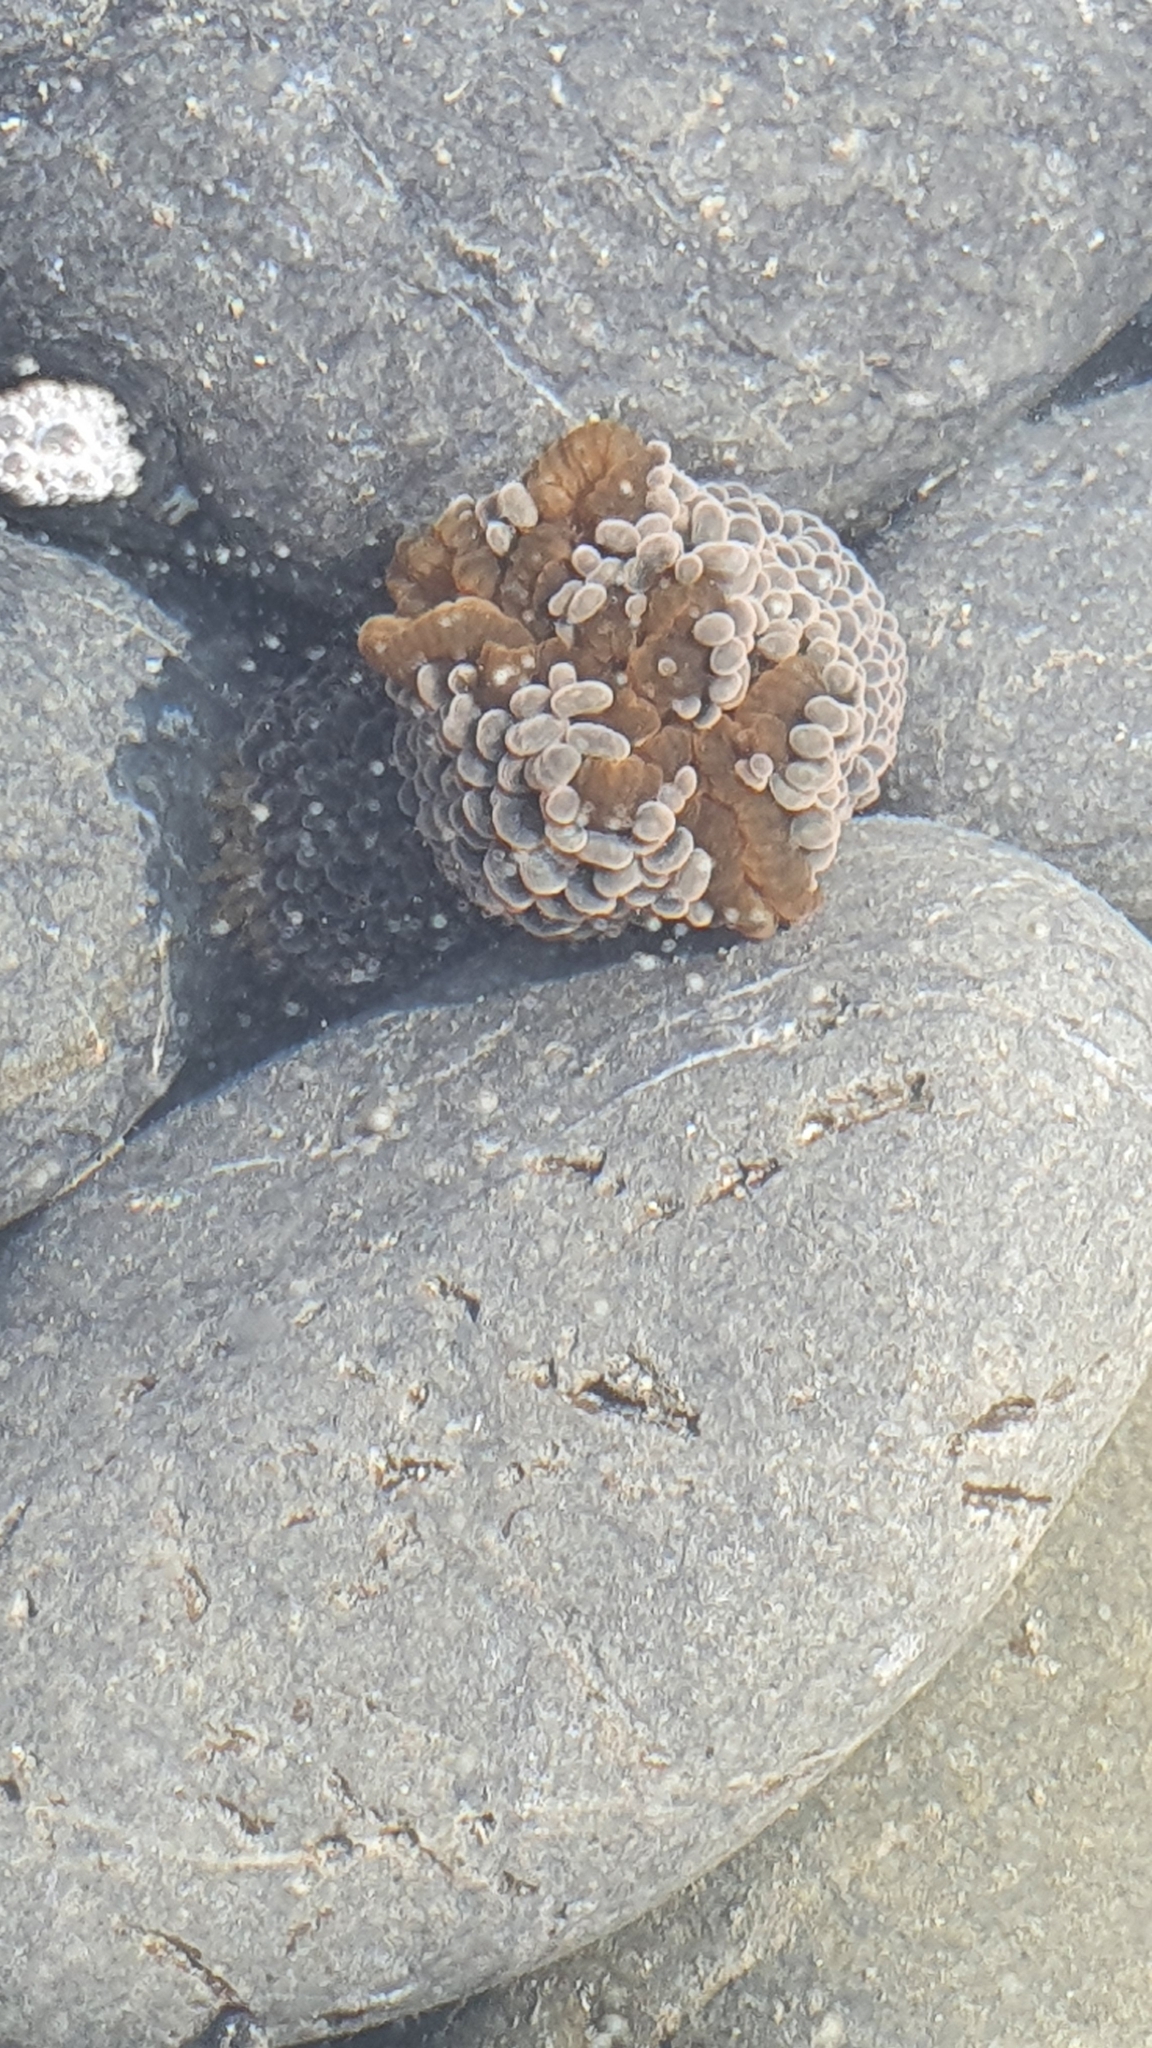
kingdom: Animalia
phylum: Cnidaria
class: Anthozoa
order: Actiniaria
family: Actiniidae
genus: Phlyctenactis
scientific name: Phlyctenactis tuberculosa
